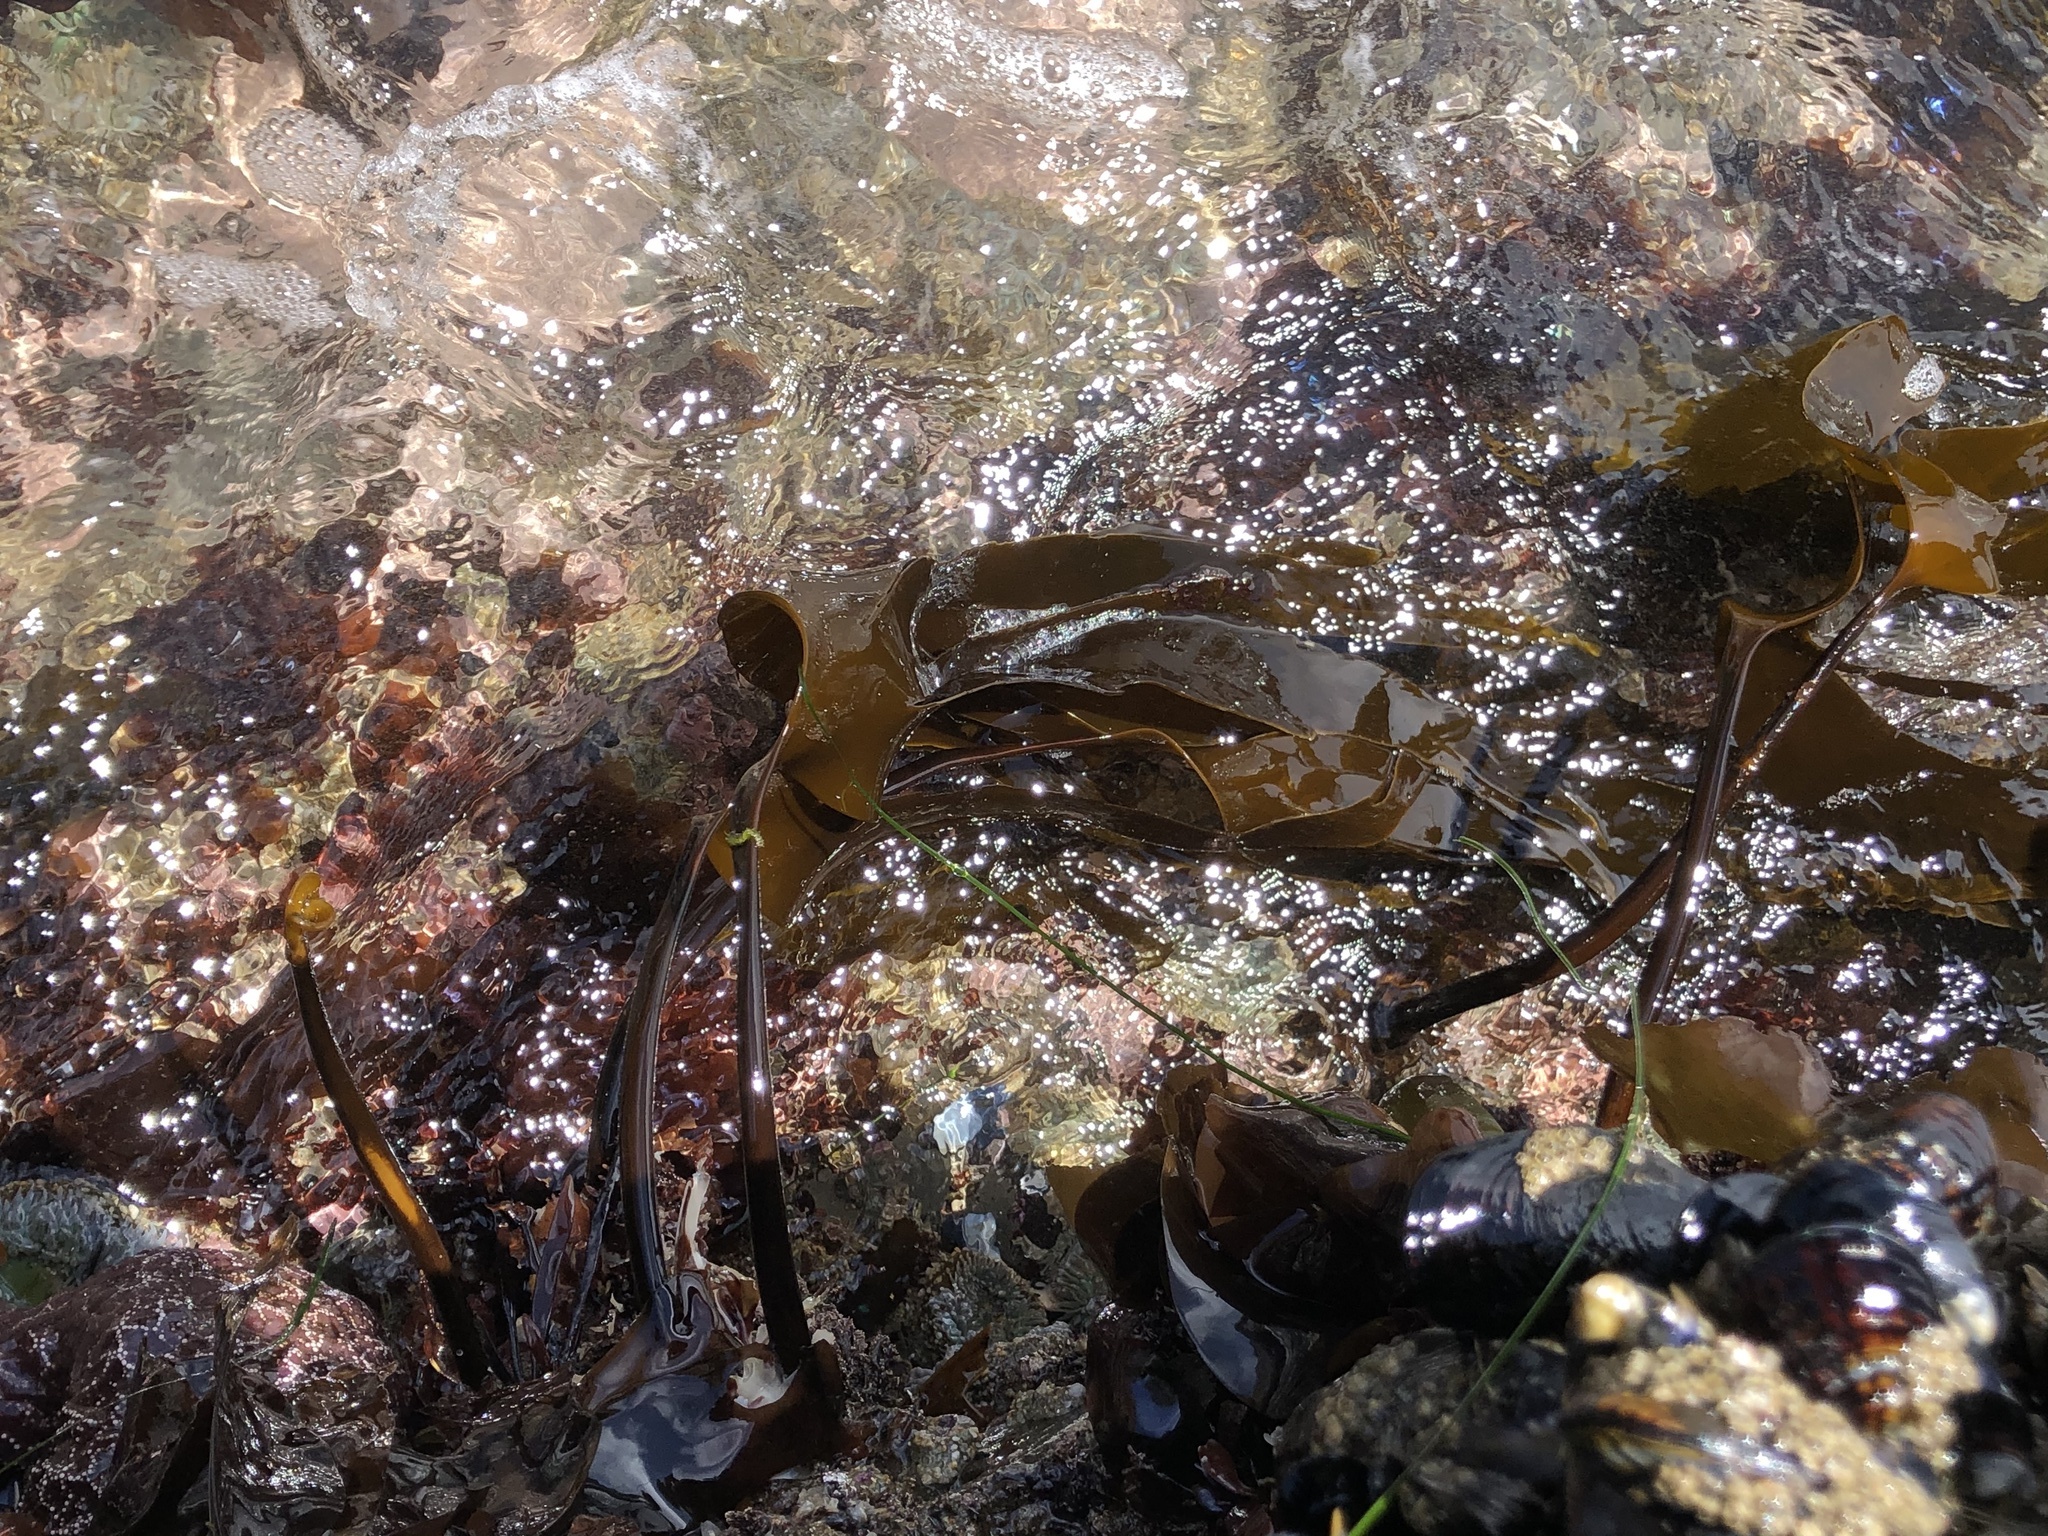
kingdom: Chromista
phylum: Ochrophyta
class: Phaeophyceae
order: Laminariales
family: Laminariaceae
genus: Laminaria
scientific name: Laminaria setchellii
